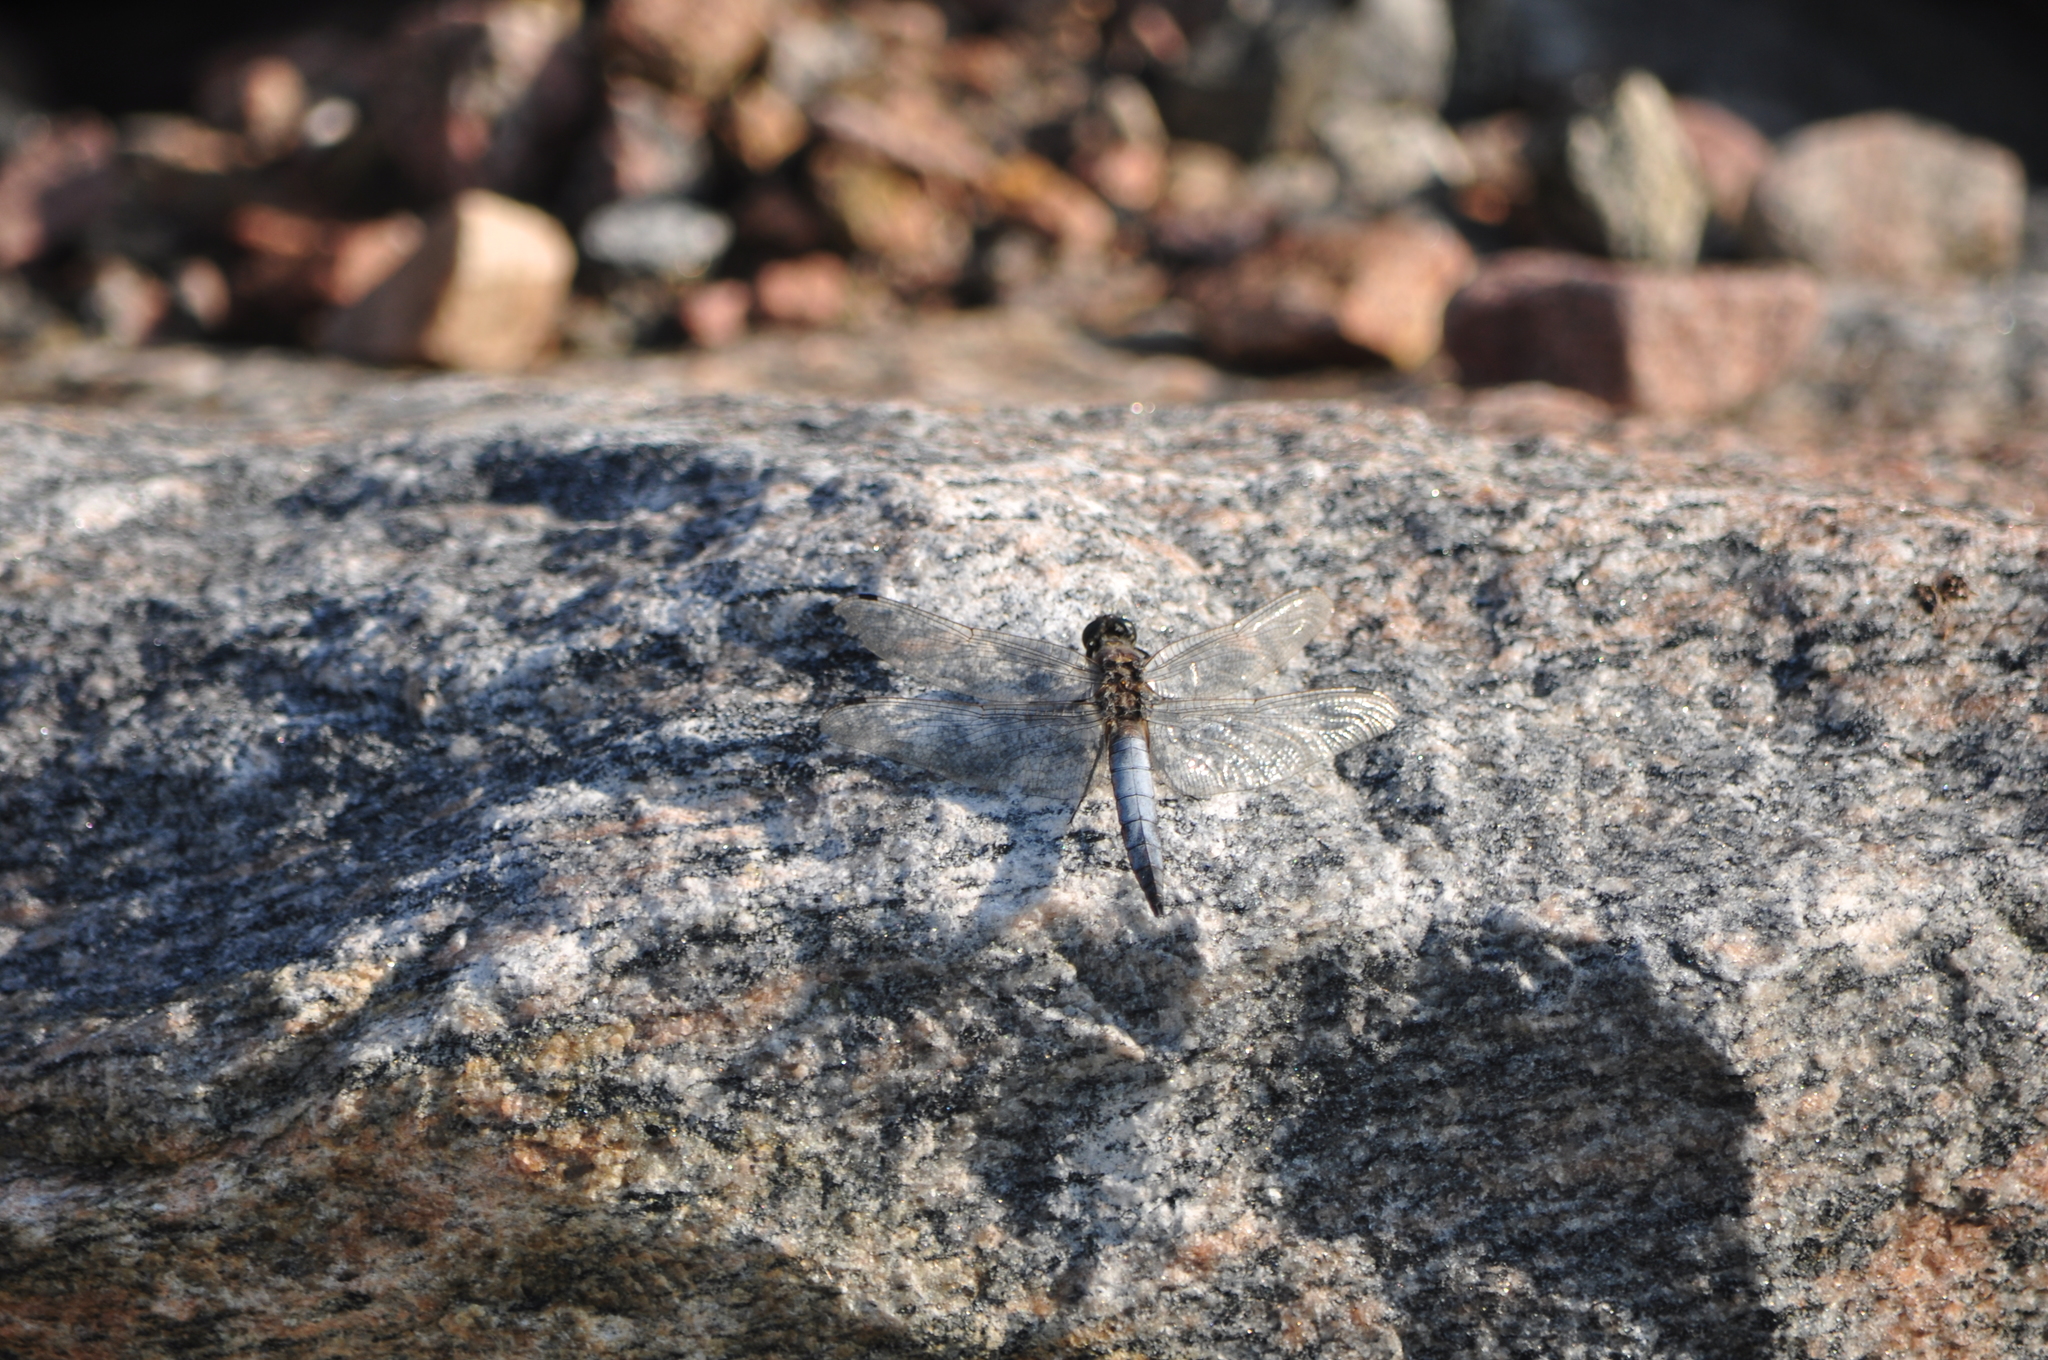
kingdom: Animalia
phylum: Arthropoda
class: Insecta
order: Odonata
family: Libellulidae
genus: Orthetrum
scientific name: Orthetrum cancellatum
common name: Black-tailed skimmer
